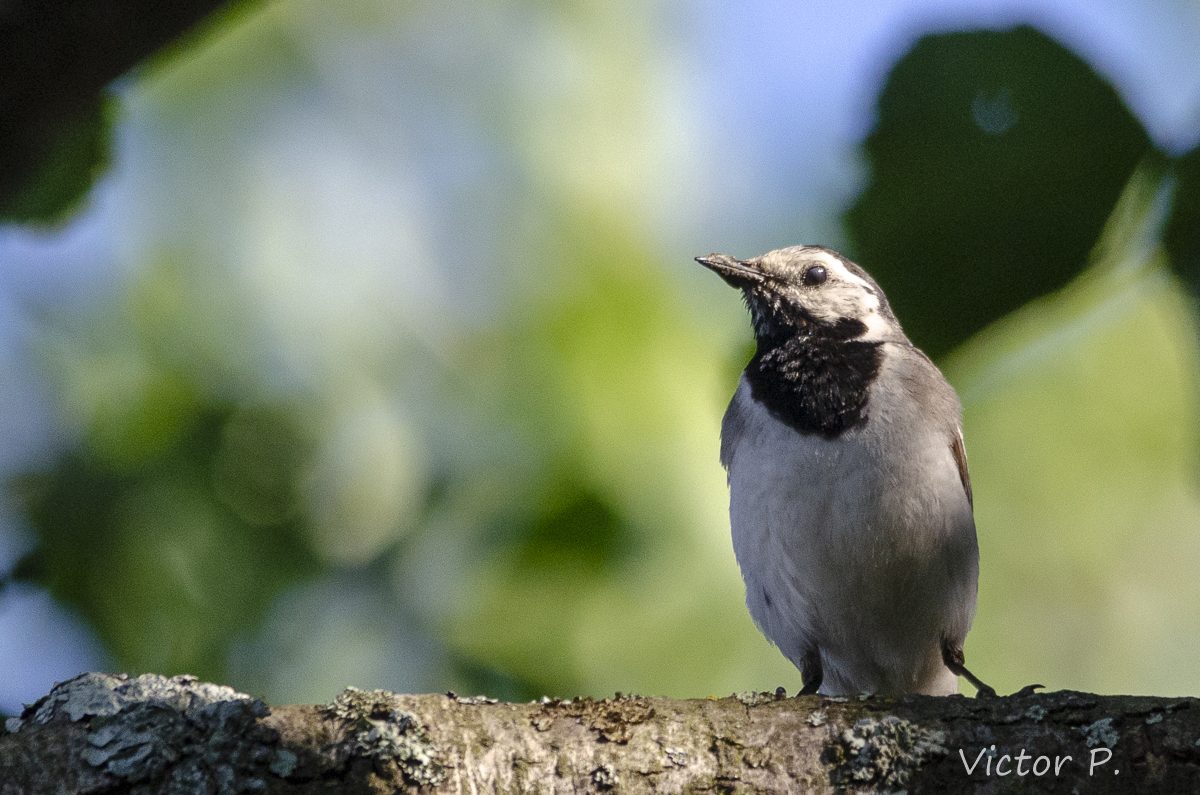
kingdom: Animalia
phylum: Chordata
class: Aves
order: Passeriformes
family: Motacillidae
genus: Motacilla
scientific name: Motacilla alba
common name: White wagtail
